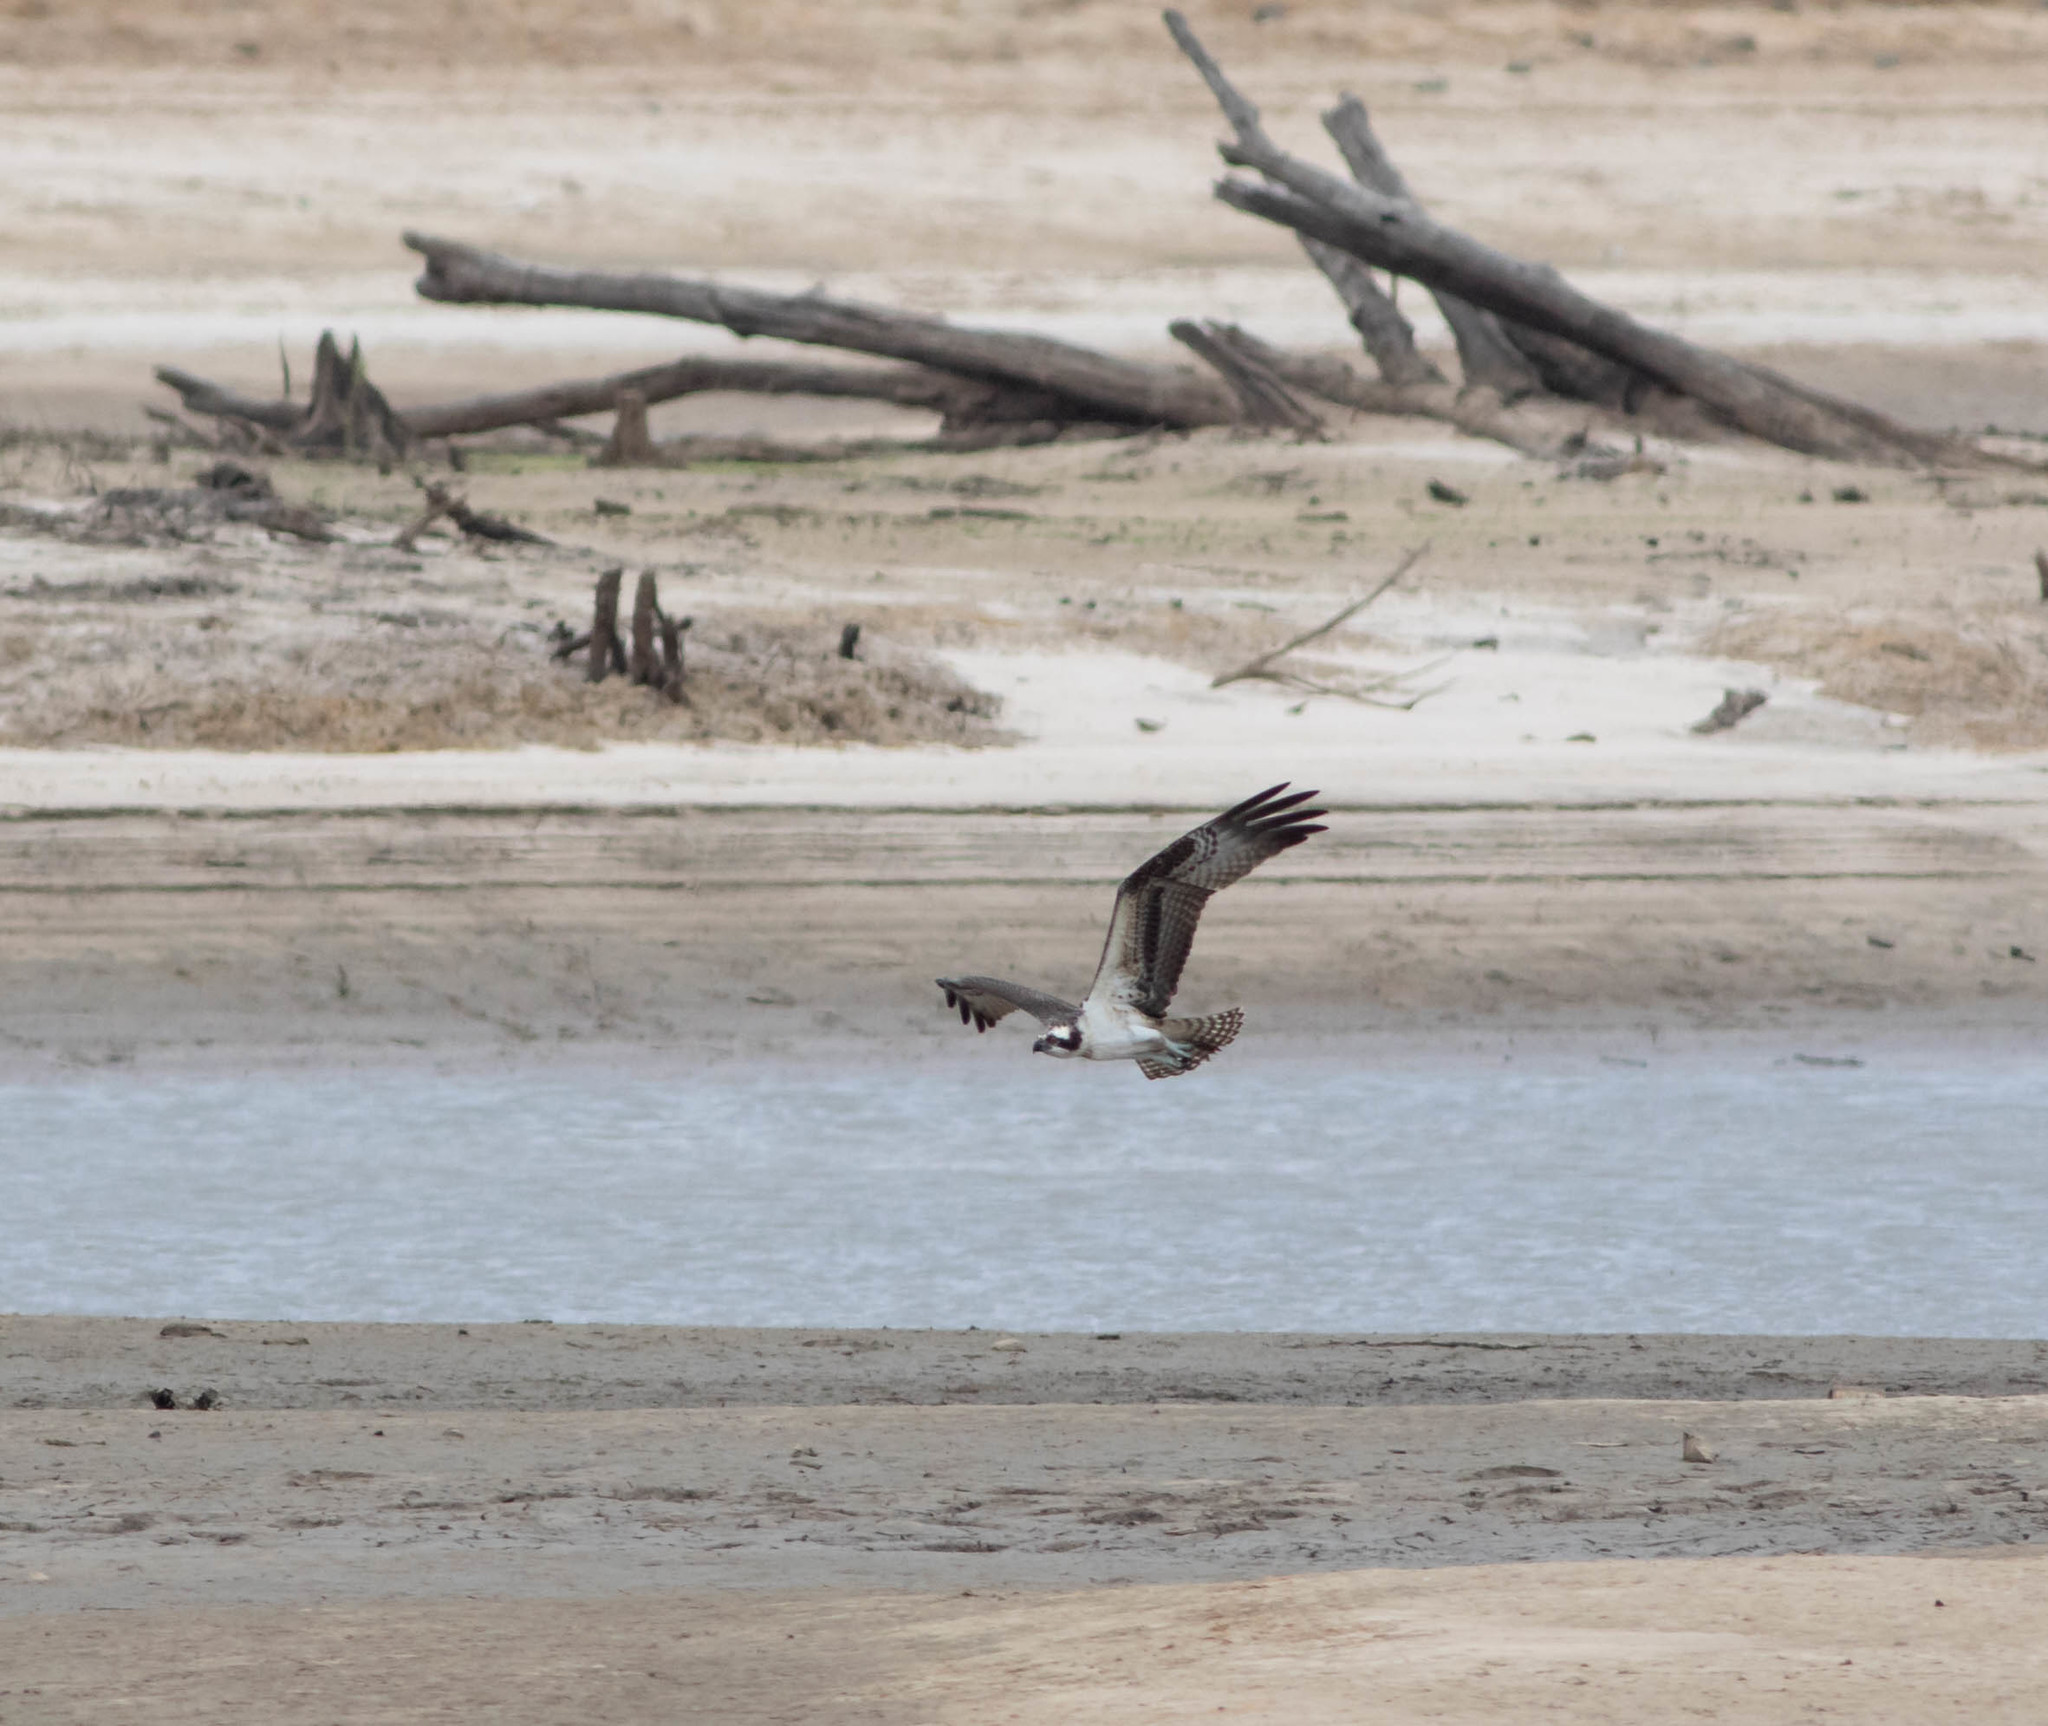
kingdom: Animalia
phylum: Chordata
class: Aves
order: Accipitriformes
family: Pandionidae
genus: Pandion
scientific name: Pandion haliaetus
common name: Osprey
